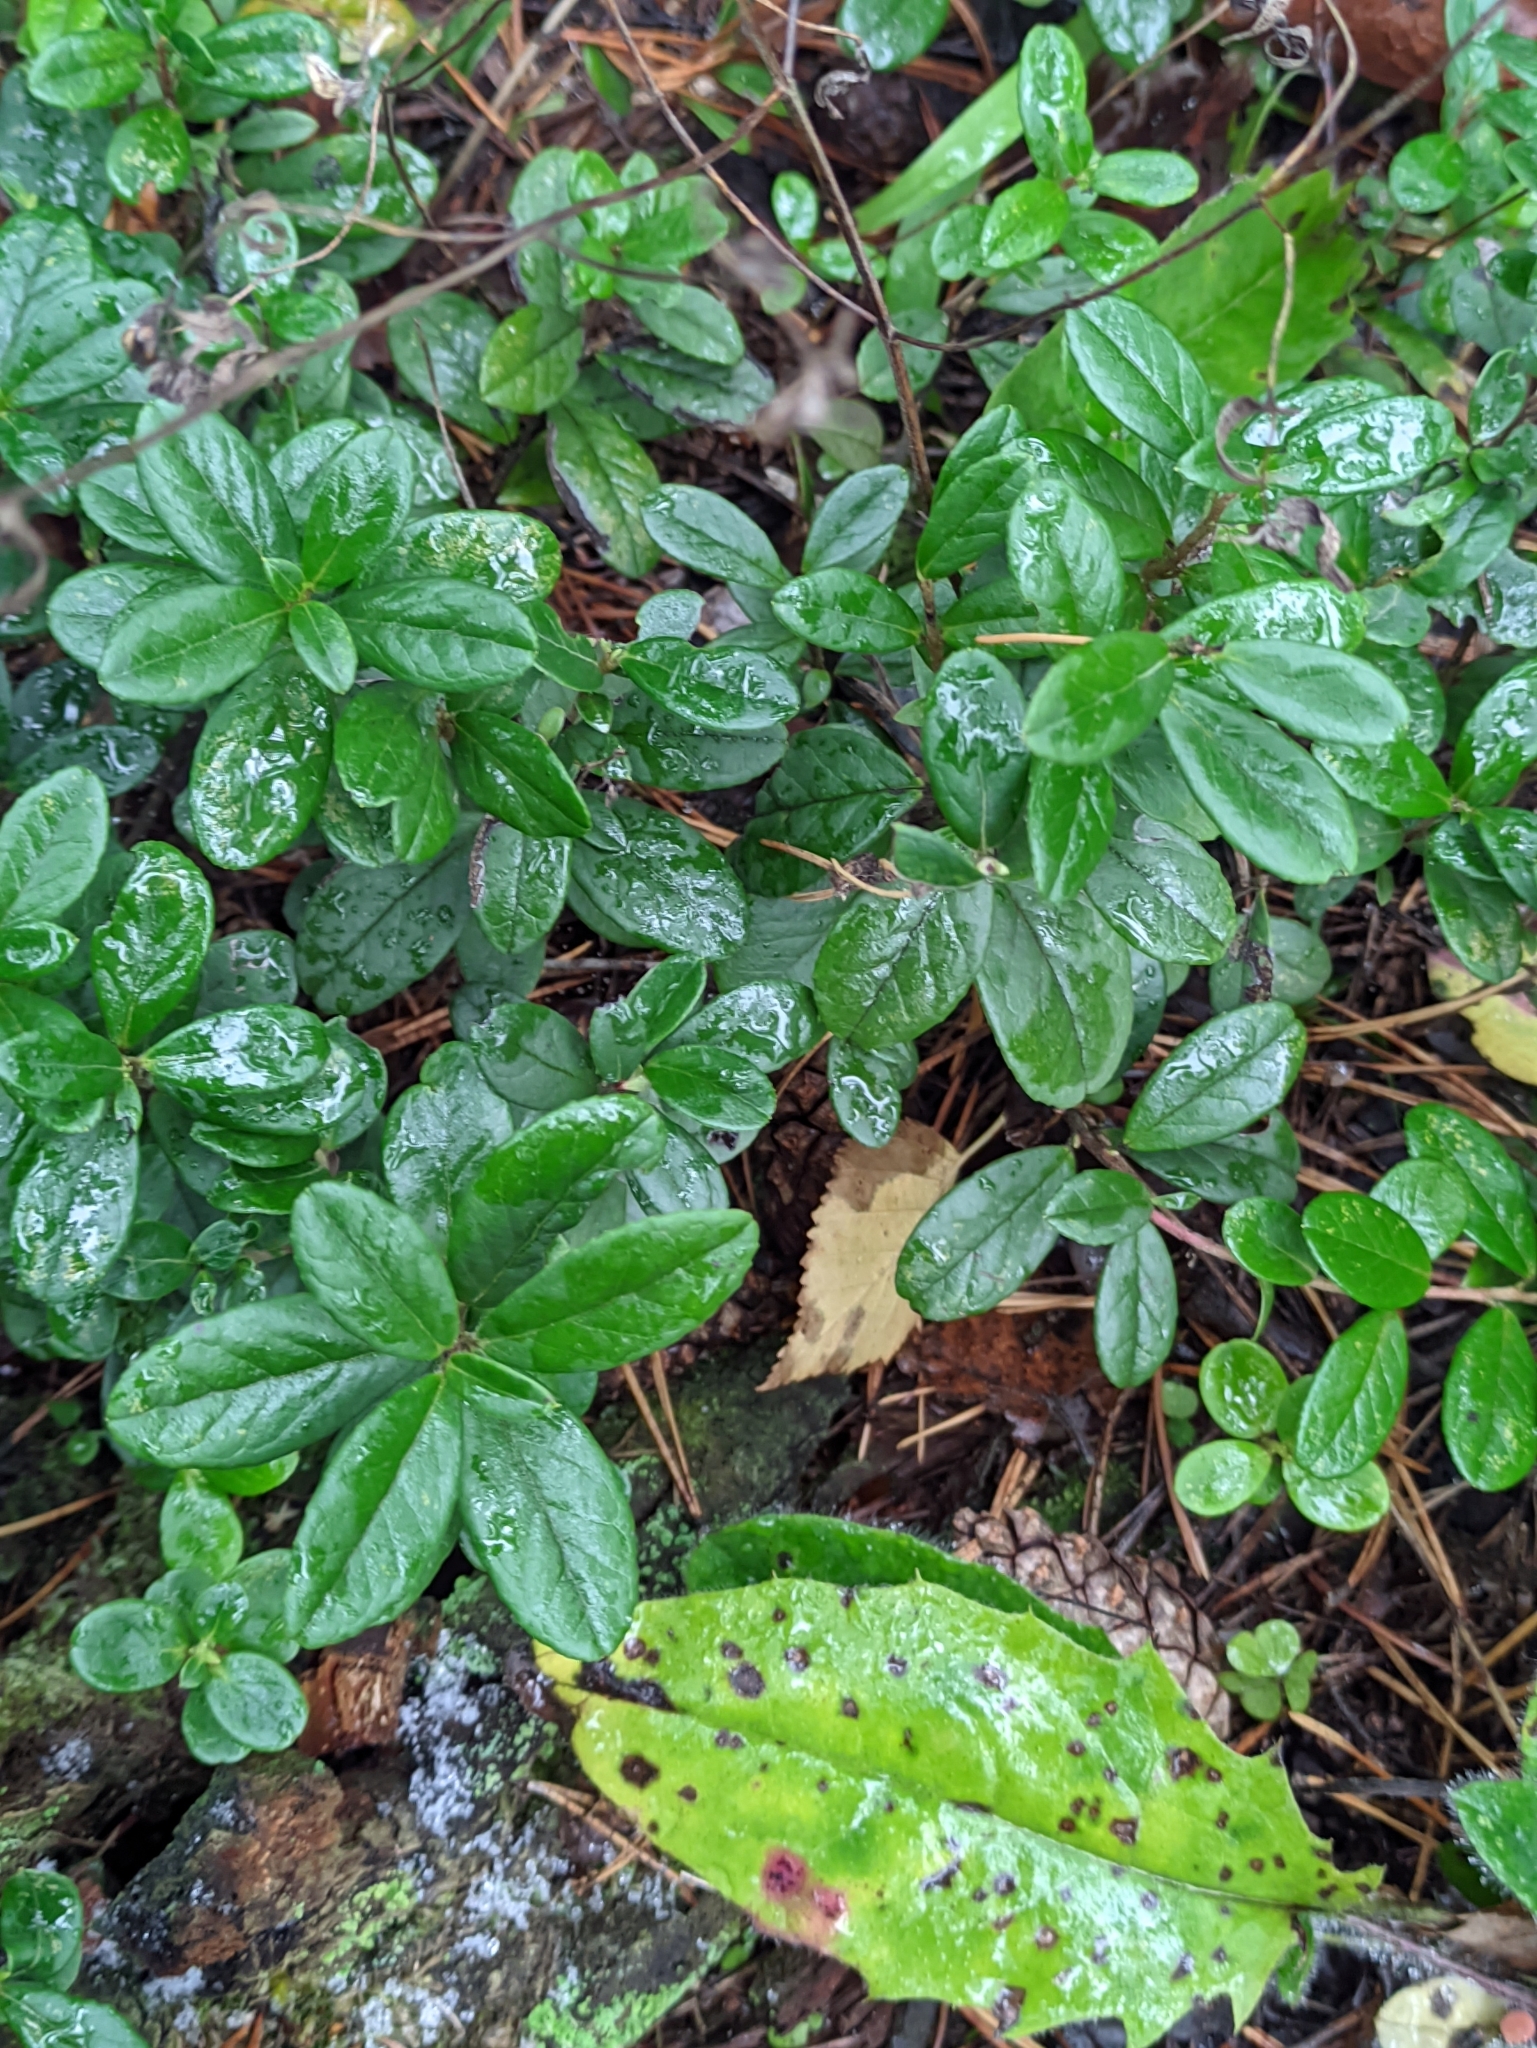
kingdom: Plantae
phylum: Tracheophyta
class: Magnoliopsida
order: Ericales
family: Ericaceae
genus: Vaccinium
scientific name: Vaccinium vitis-idaea
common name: Cowberry
